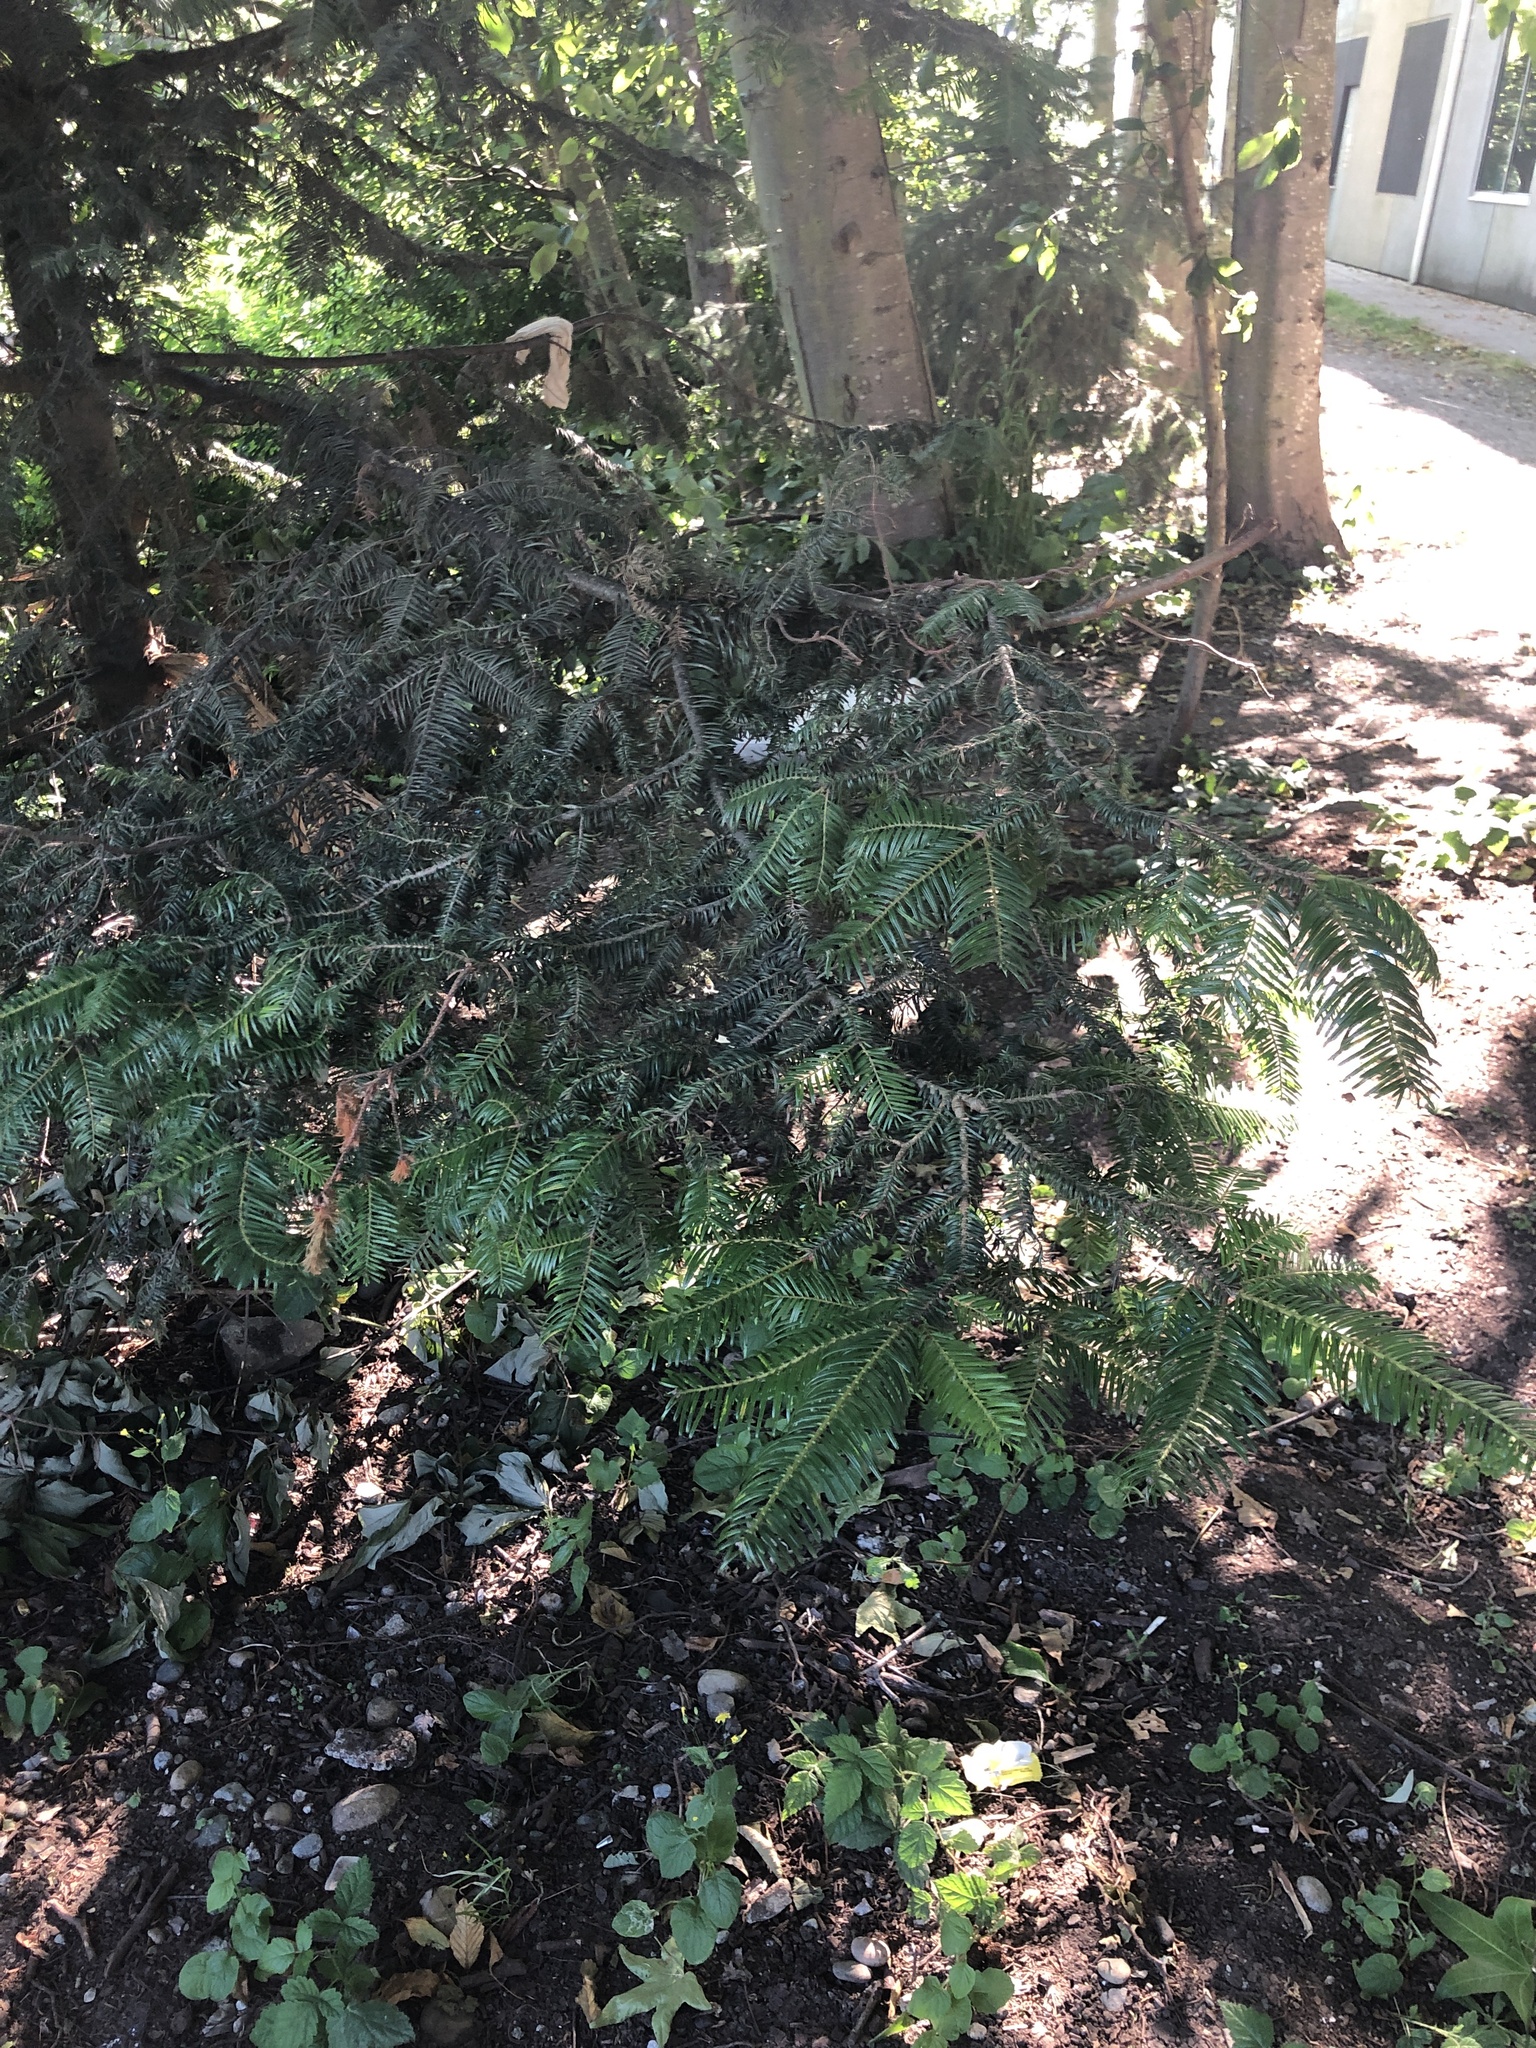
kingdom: Plantae
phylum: Tracheophyta
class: Pinopsida
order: Pinales
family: Pinaceae
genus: Abies
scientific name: Abies grandis
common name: Giant fir
